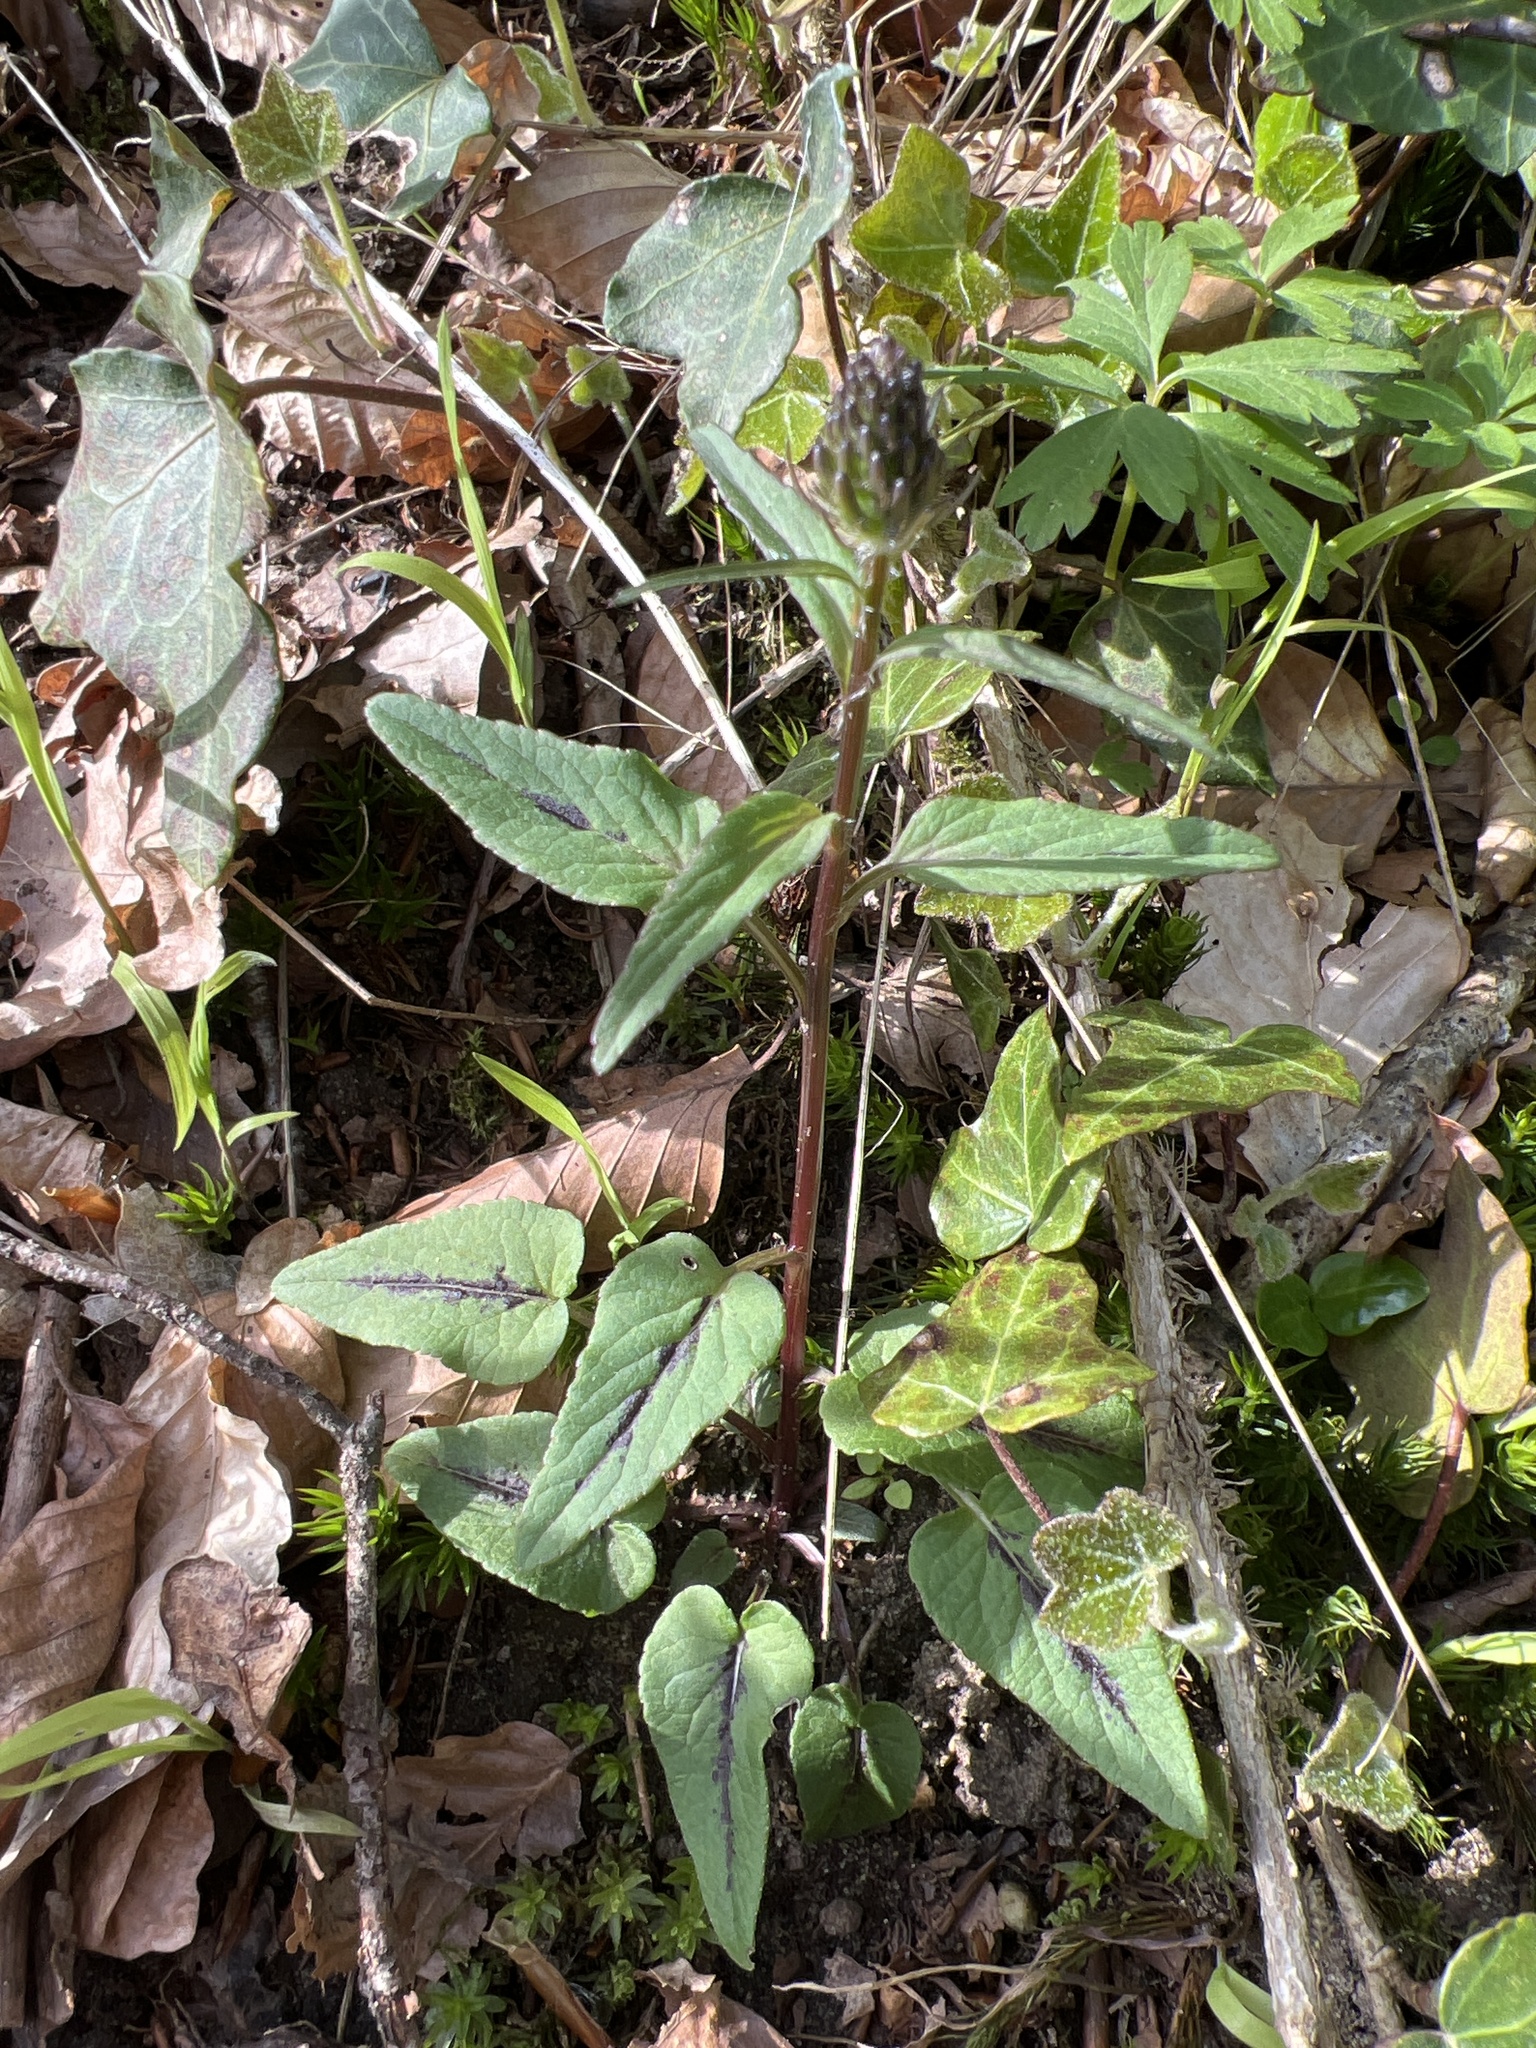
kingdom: Plantae
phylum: Tracheophyta
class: Magnoliopsida
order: Asterales
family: Campanulaceae
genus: Phyteuma
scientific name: Phyteuma nigrum
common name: Black rampion
